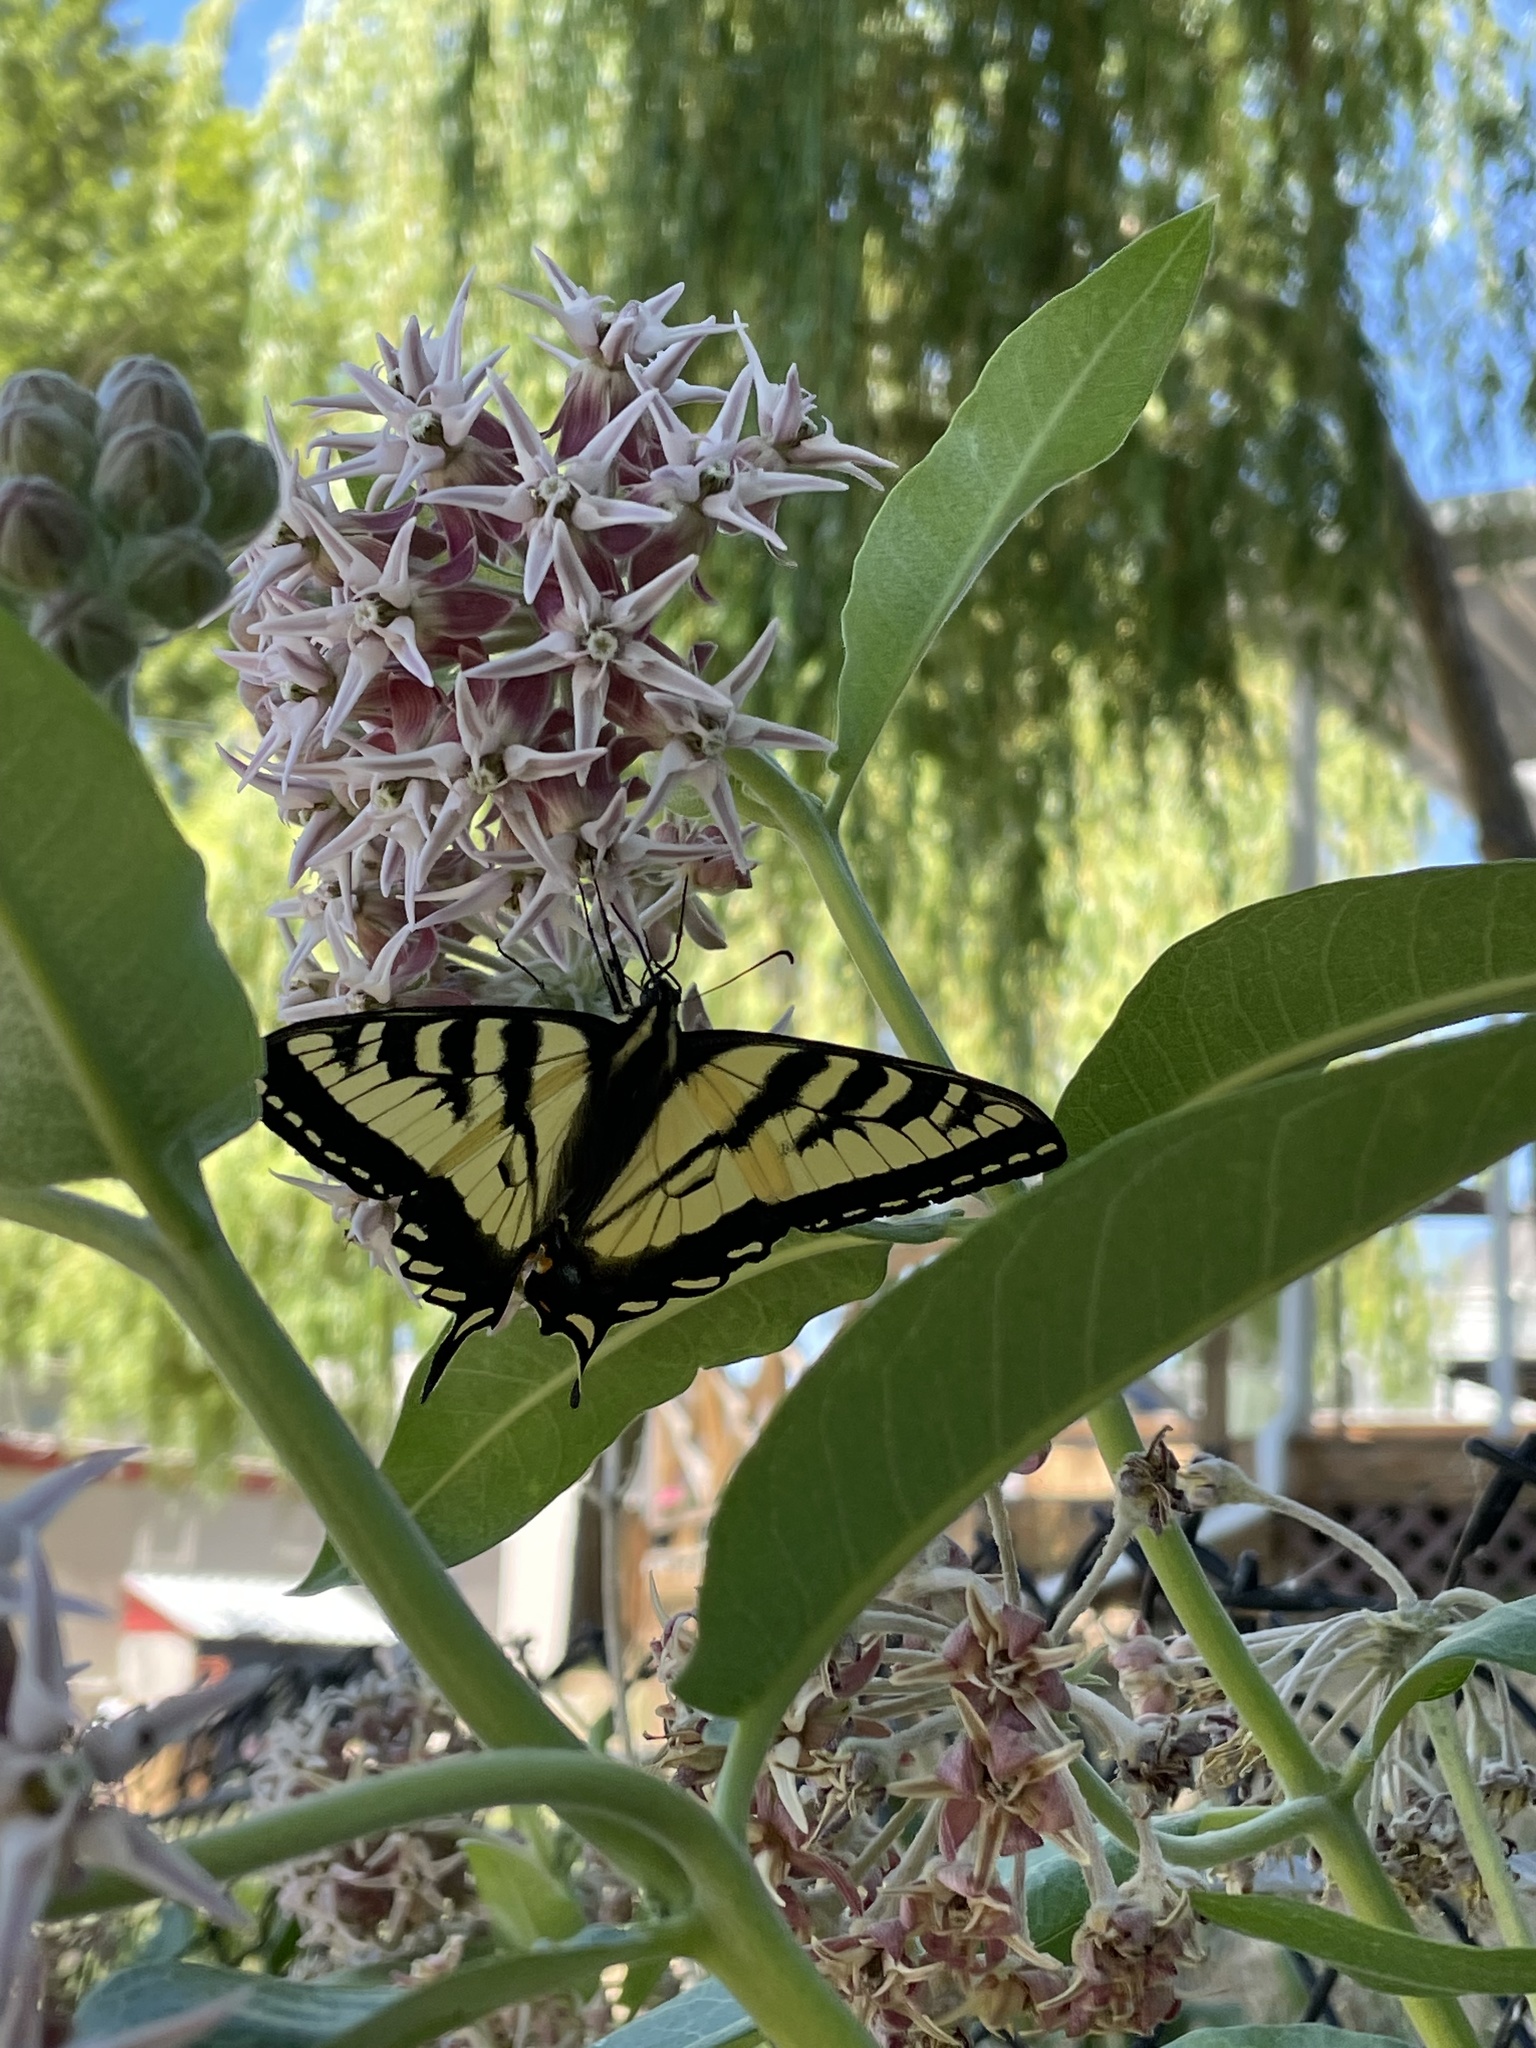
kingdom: Animalia
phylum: Arthropoda
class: Insecta
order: Lepidoptera
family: Papilionidae
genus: Papilio
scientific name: Papilio rutulus
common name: Western tiger swallowtail
